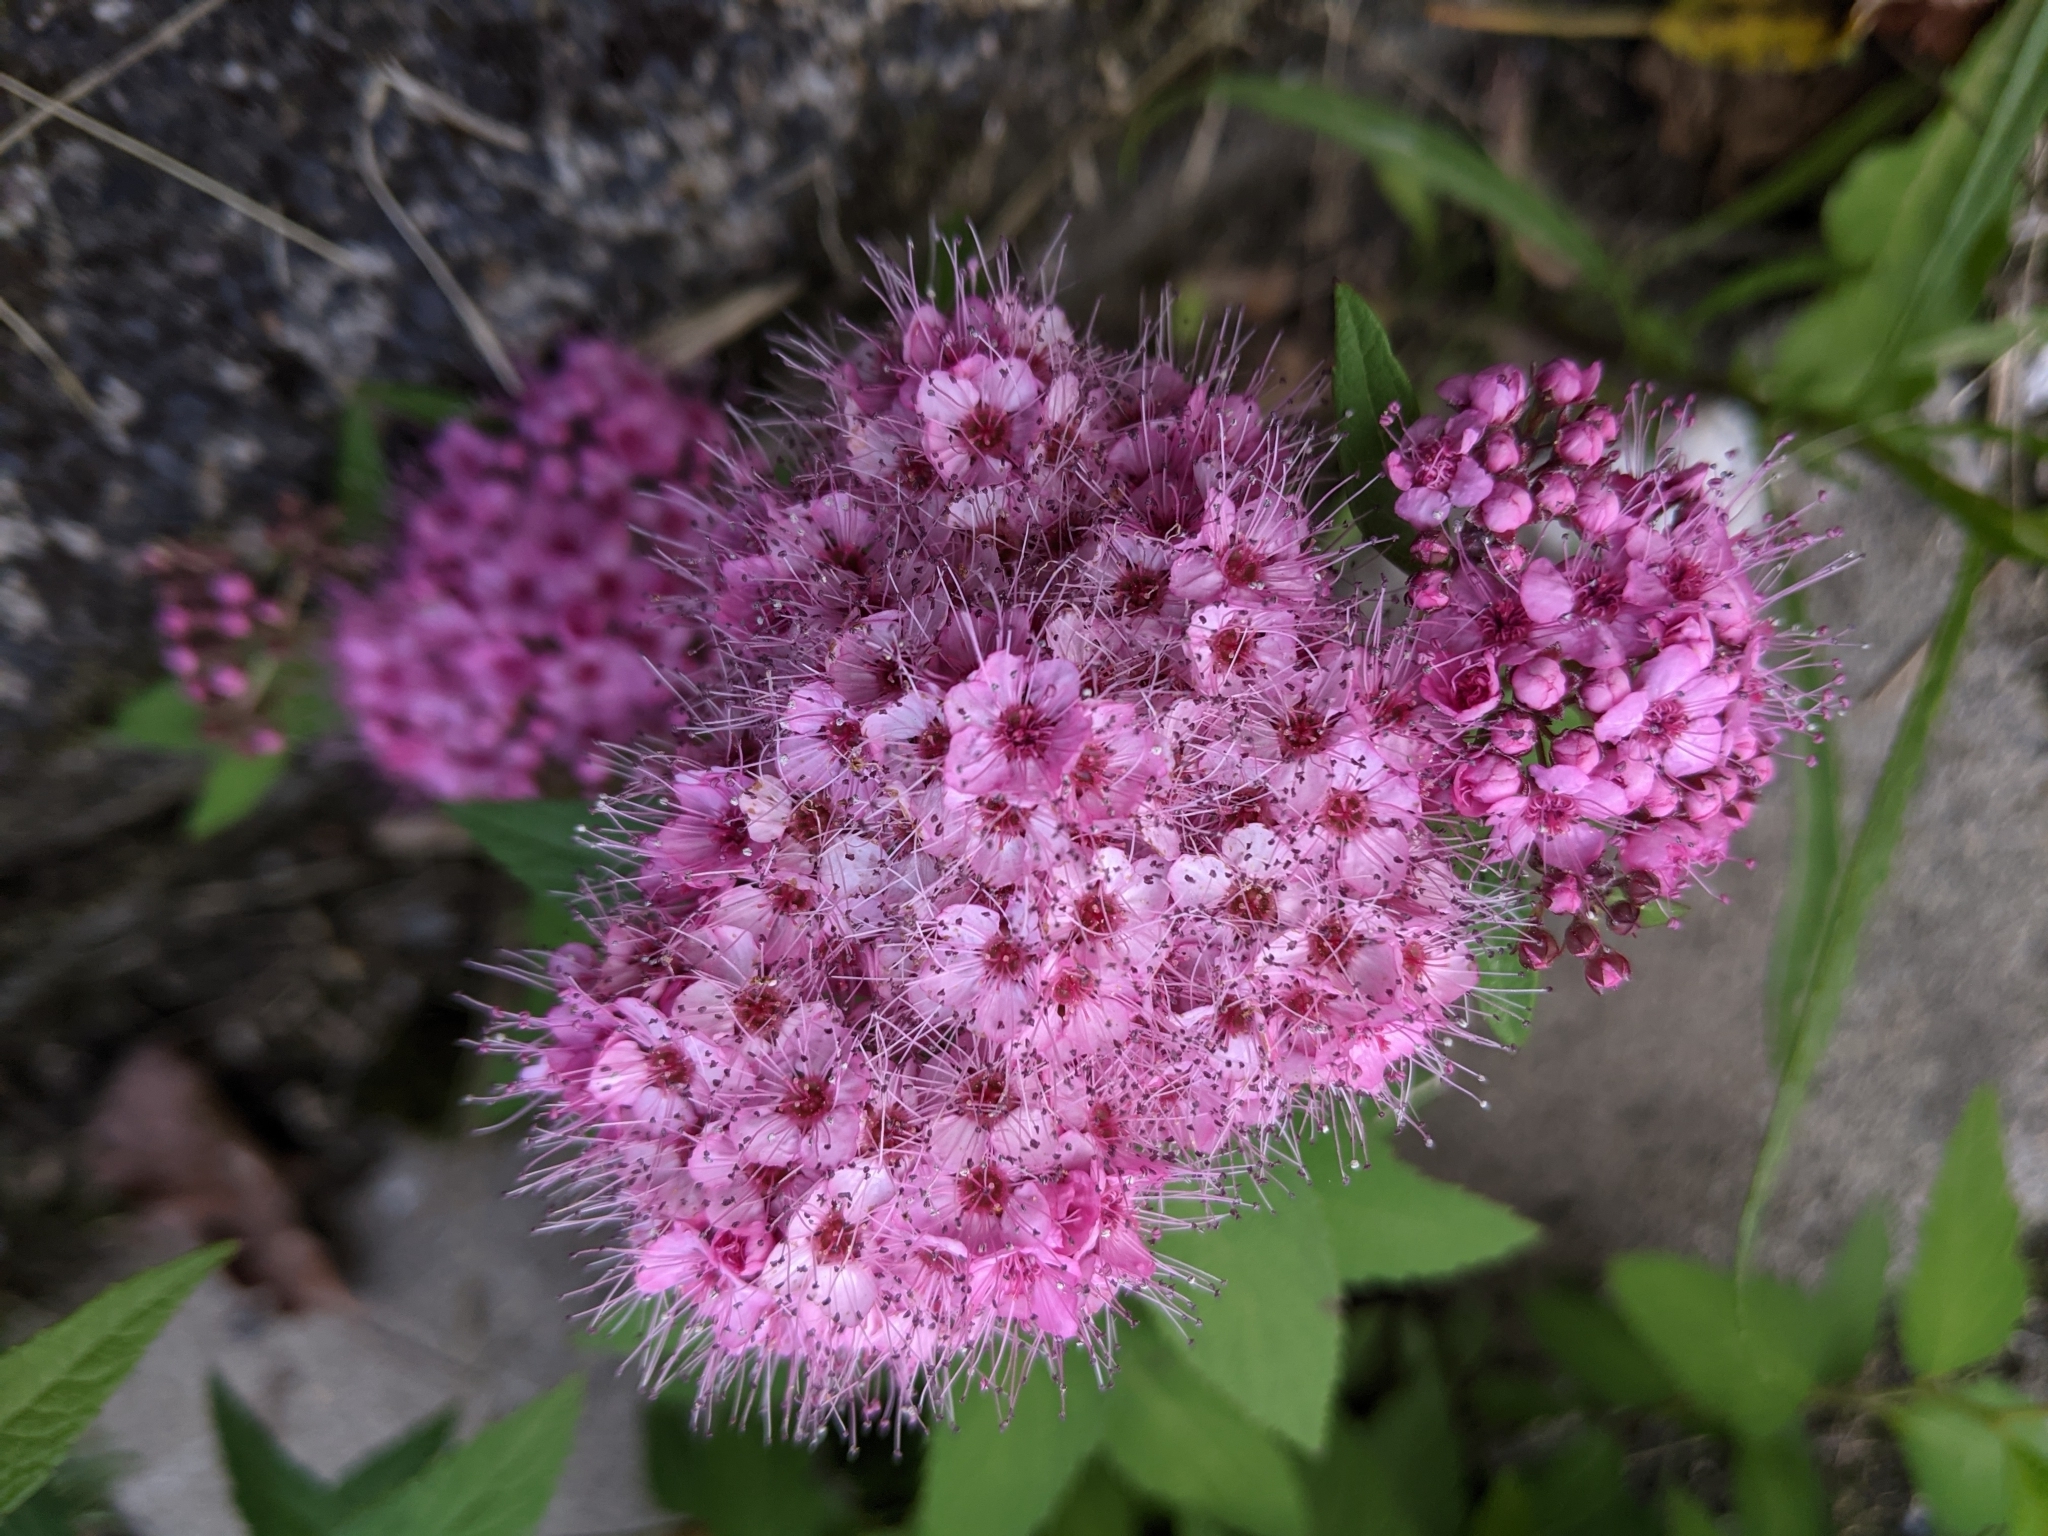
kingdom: Plantae
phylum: Tracheophyta
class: Magnoliopsida
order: Rosales
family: Rosaceae
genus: Spiraea
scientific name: Spiraea japonica
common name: Japanese spiraea
